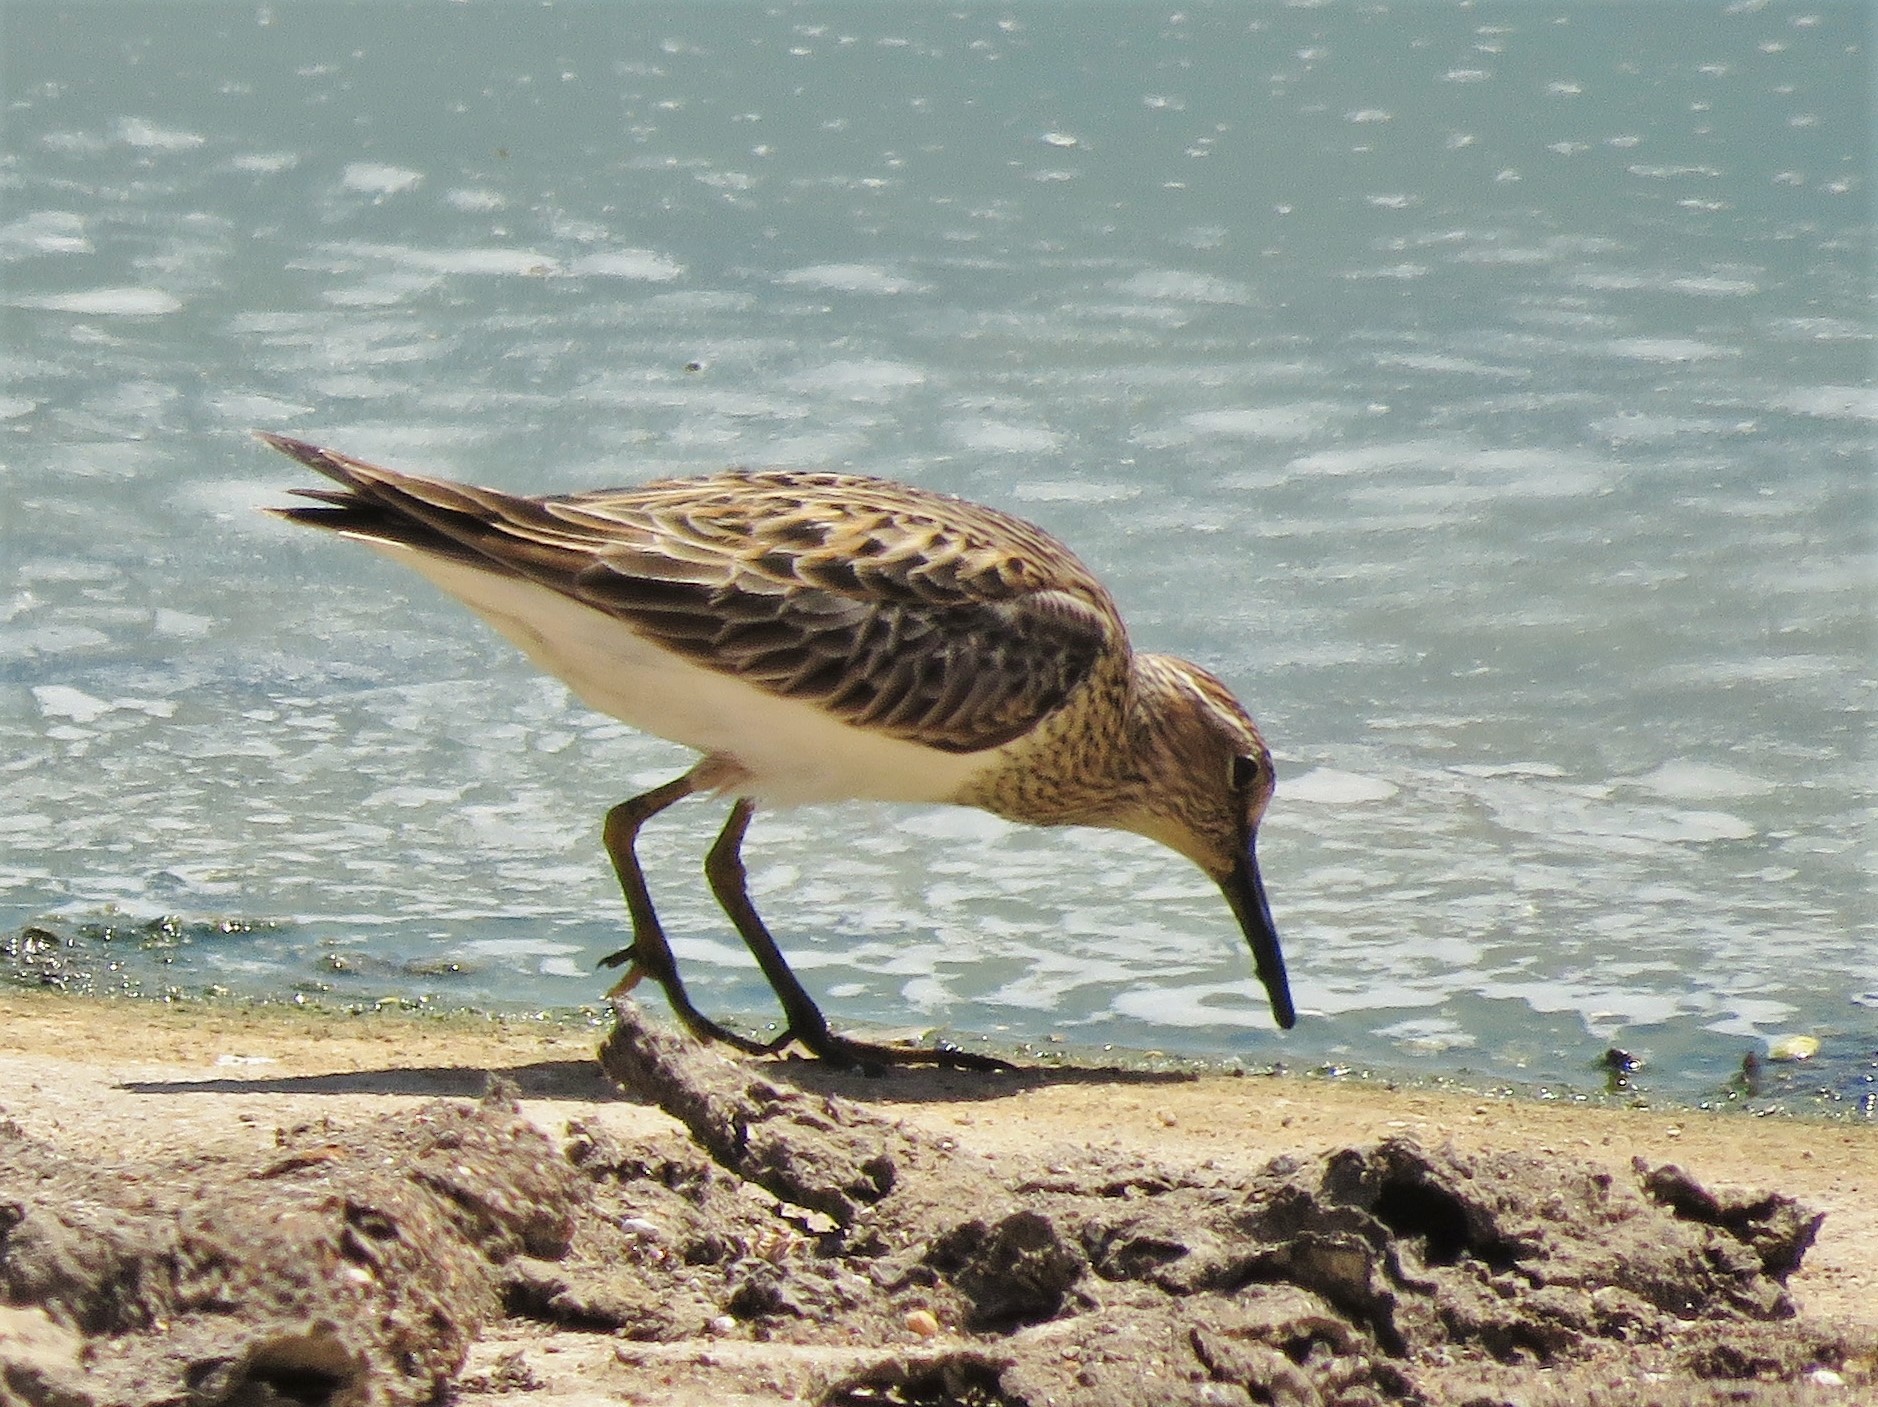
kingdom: Animalia
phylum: Chordata
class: Aves
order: Charadriiformes
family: Scolopacidae
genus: Calidris
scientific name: Calidris melanotos
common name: Pectoral sandpiper
